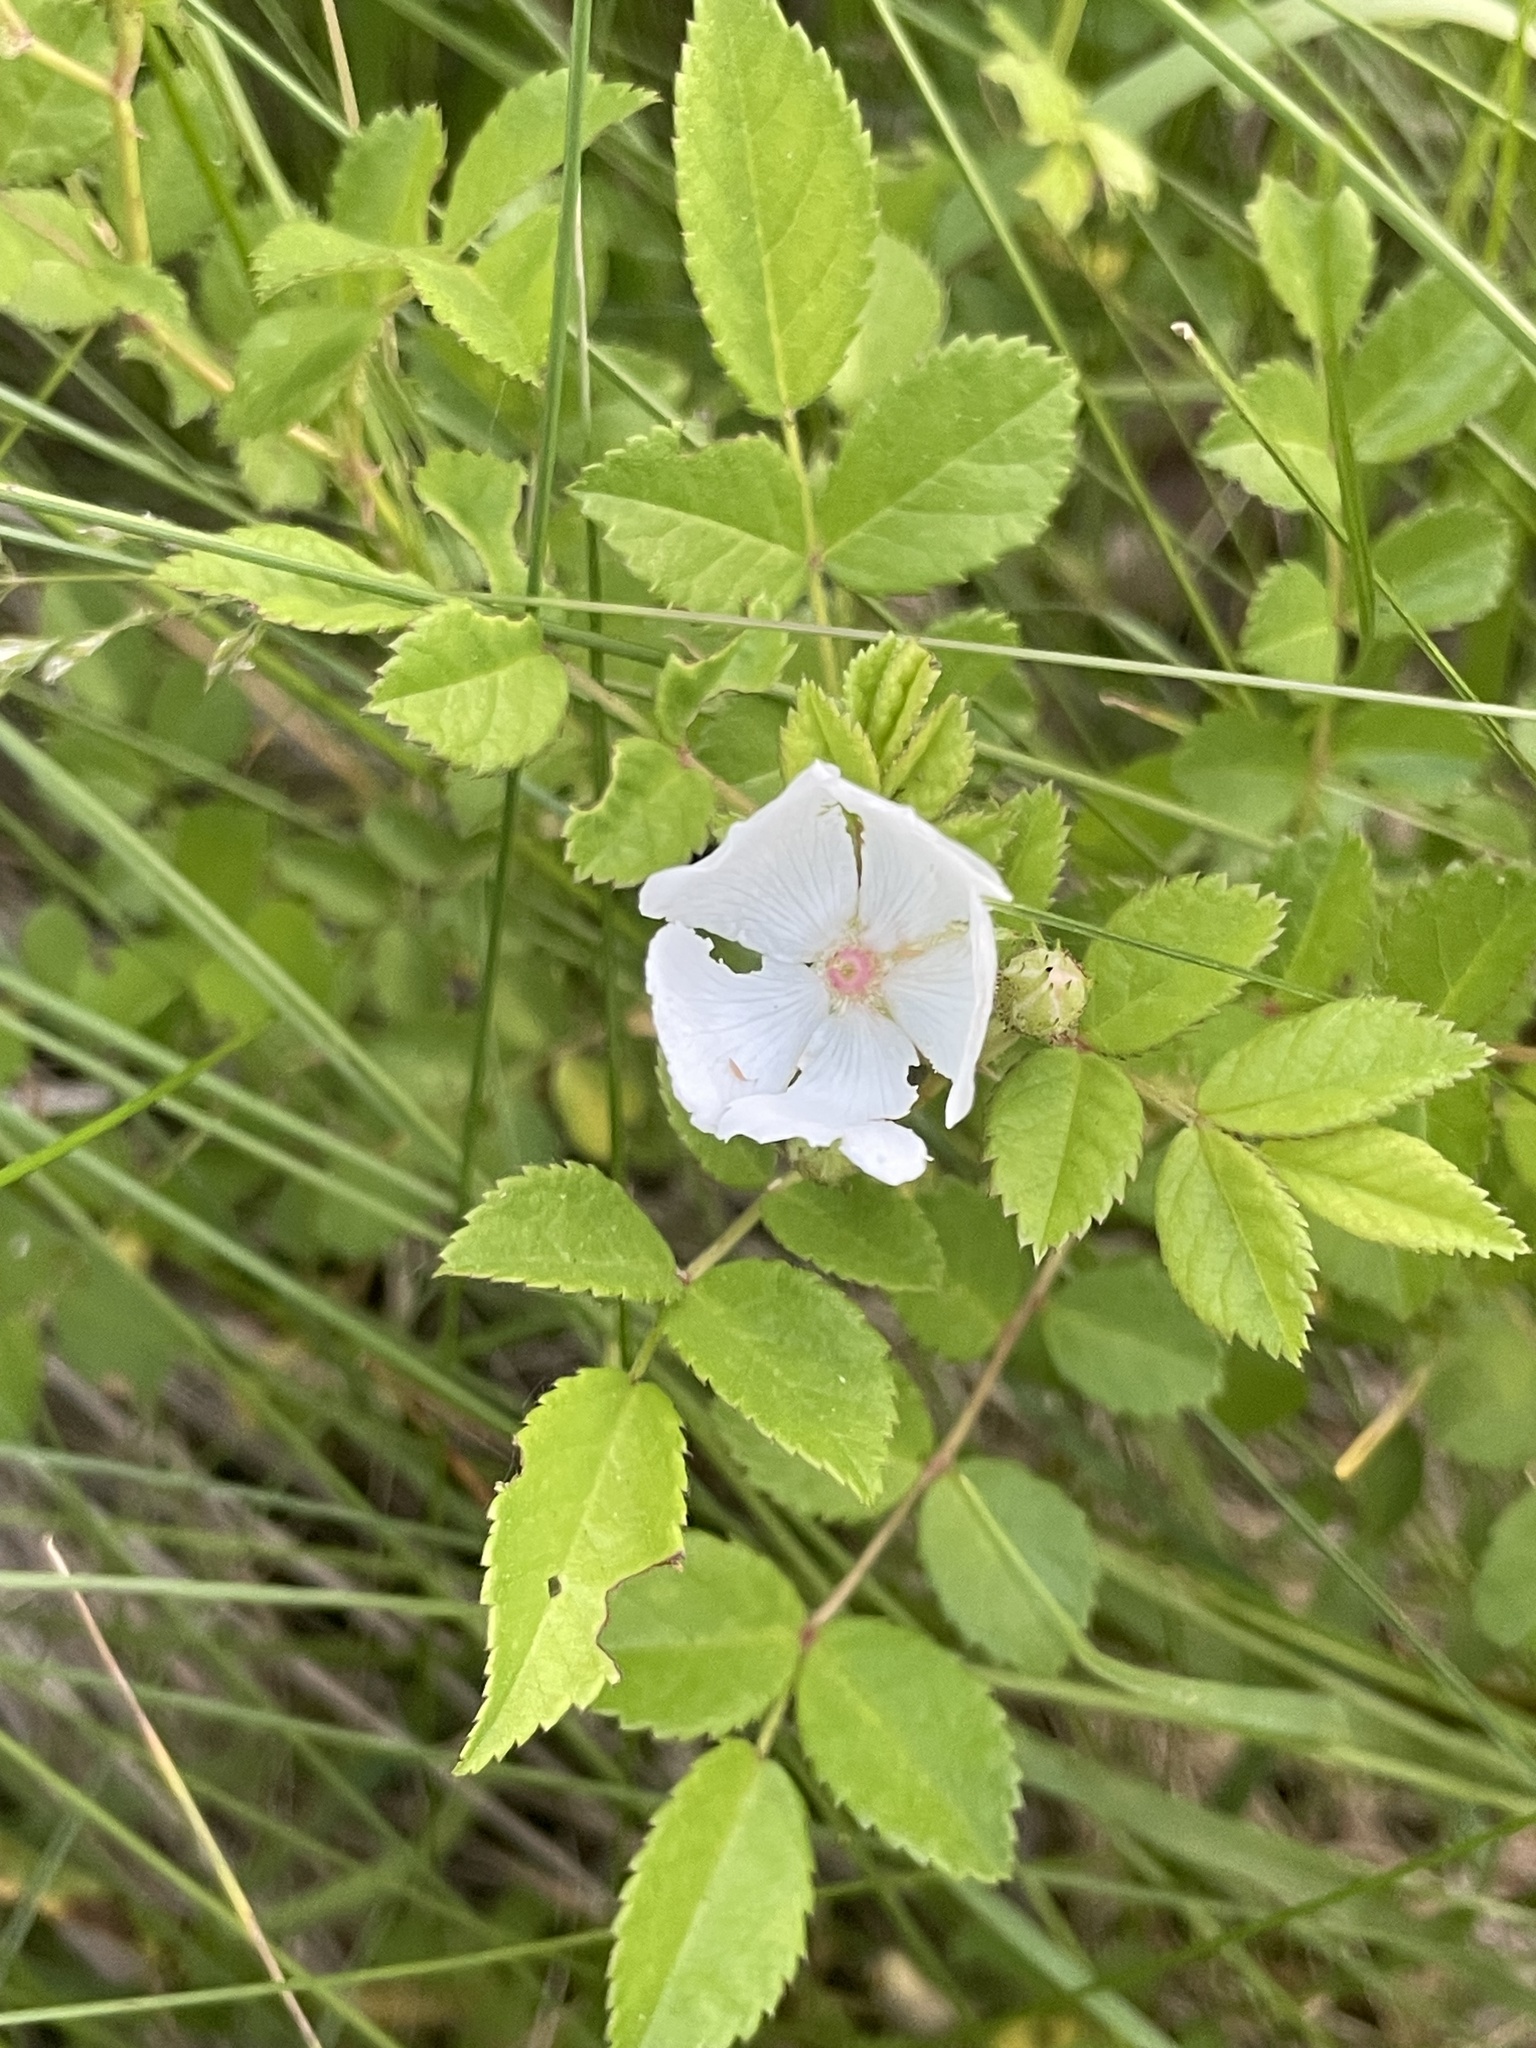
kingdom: Plantae
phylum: Tracheophyta
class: Magnoliopsida
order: Rosales
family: Rosaceae
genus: Rosa
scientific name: Rosa multiflora
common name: Multiflora rose
